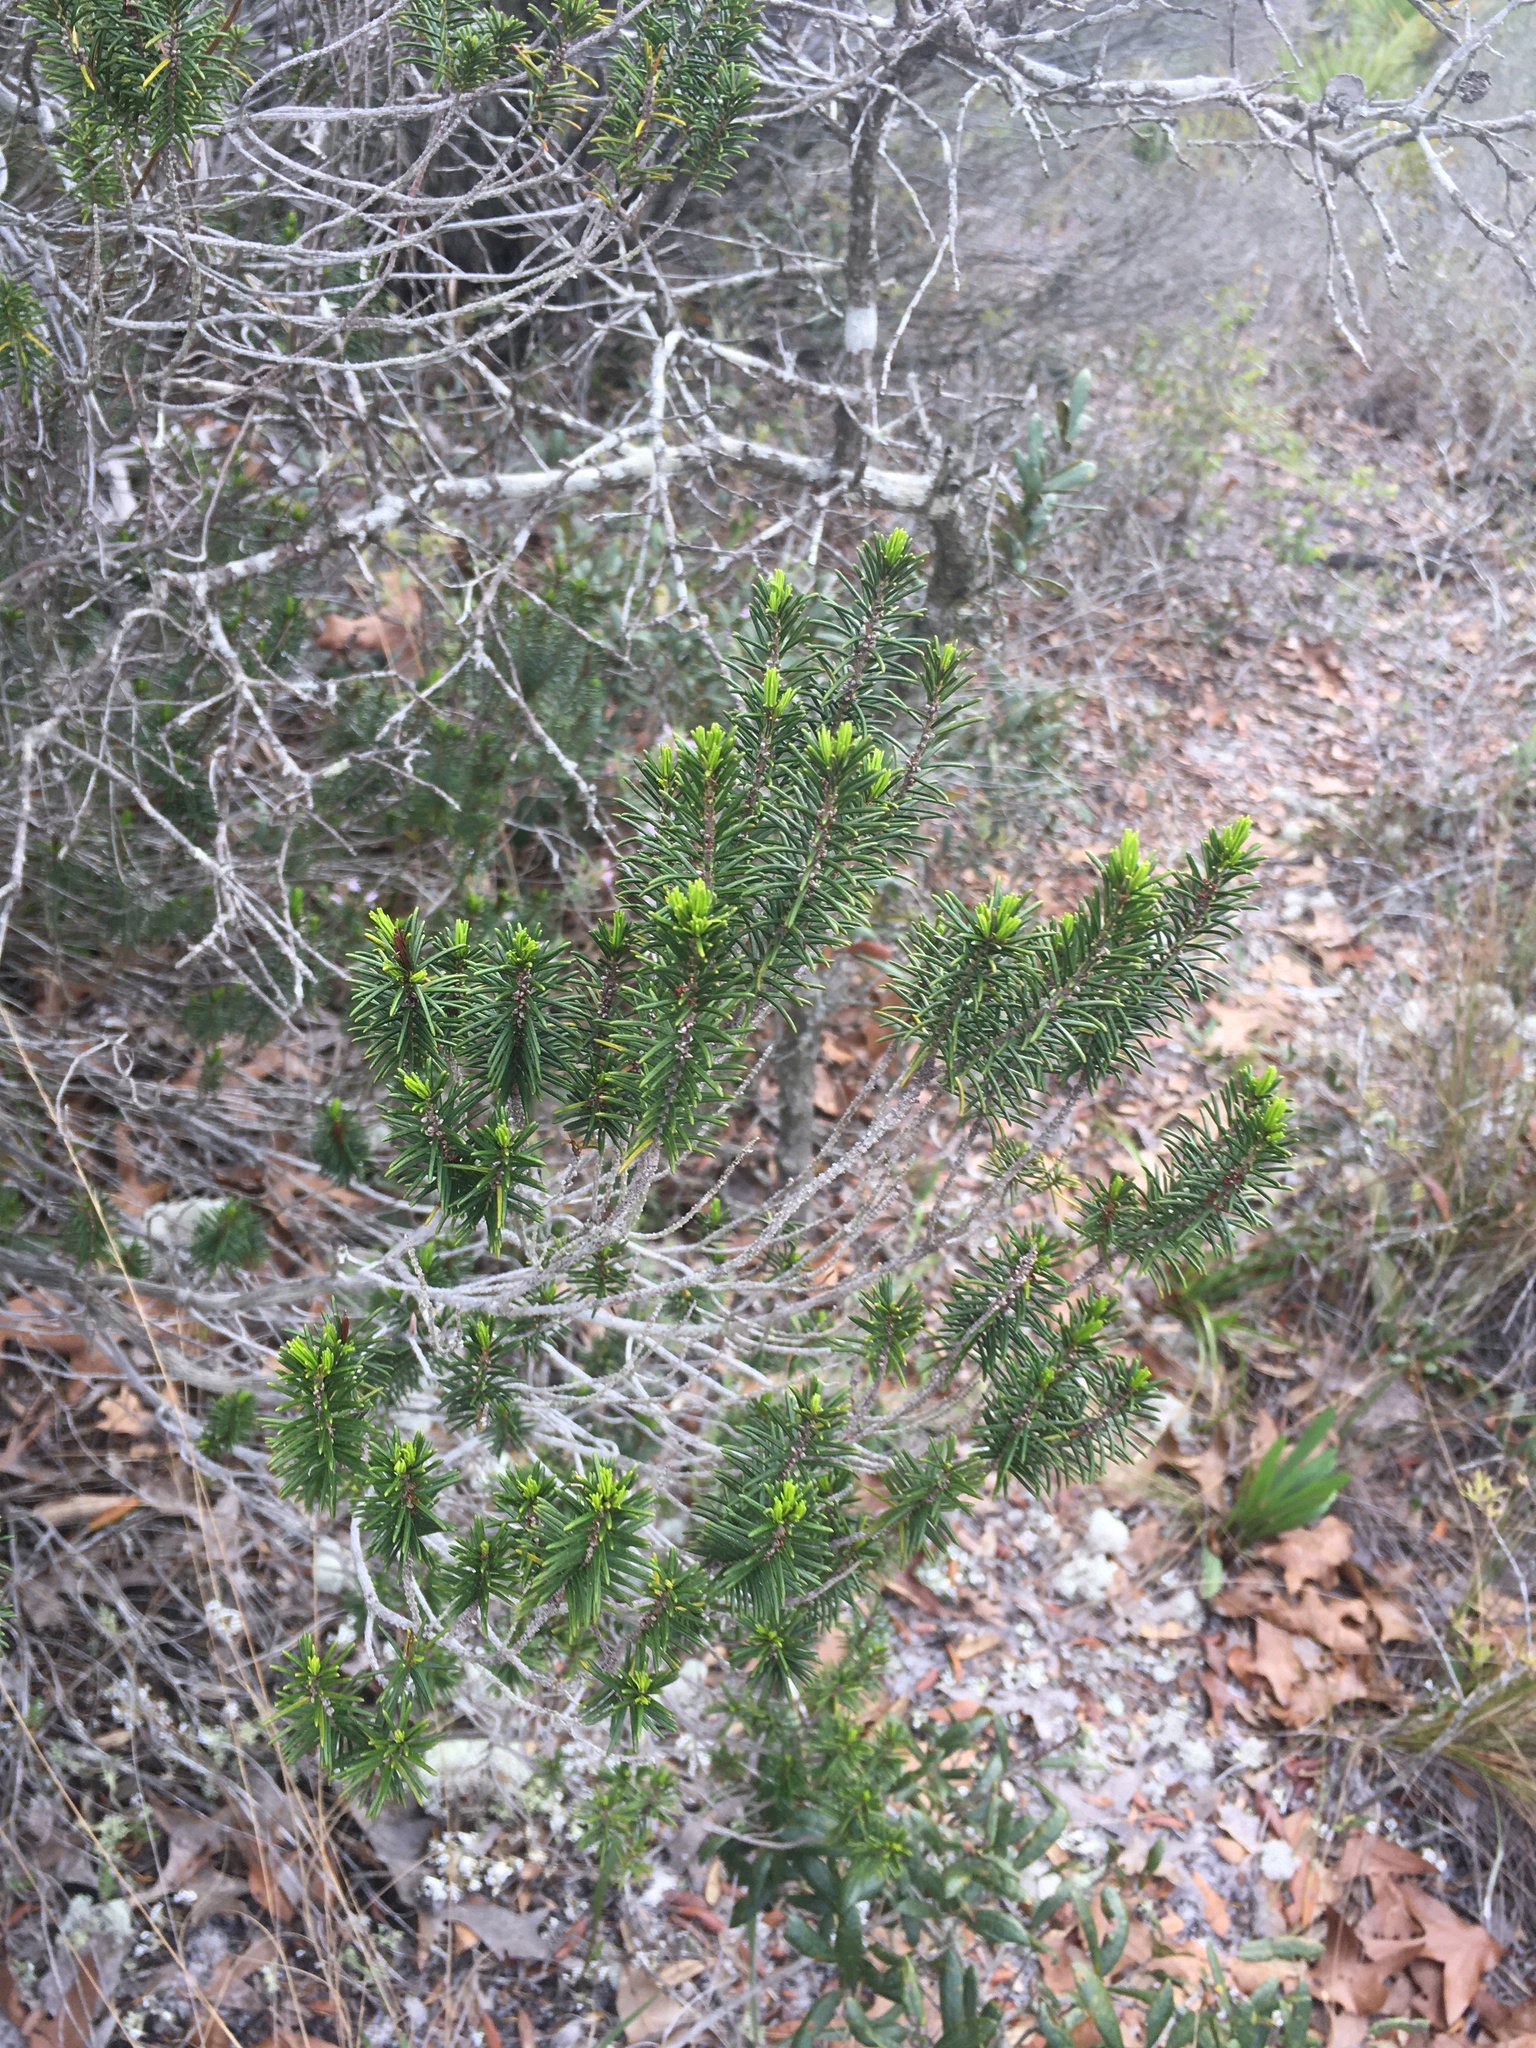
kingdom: Plantae
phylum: Tracheophyta
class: Magnoliopsida
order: Ericales
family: Ericaceae
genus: Ceratiola
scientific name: Ceratiola ericoides
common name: Sandhill-rosemary
